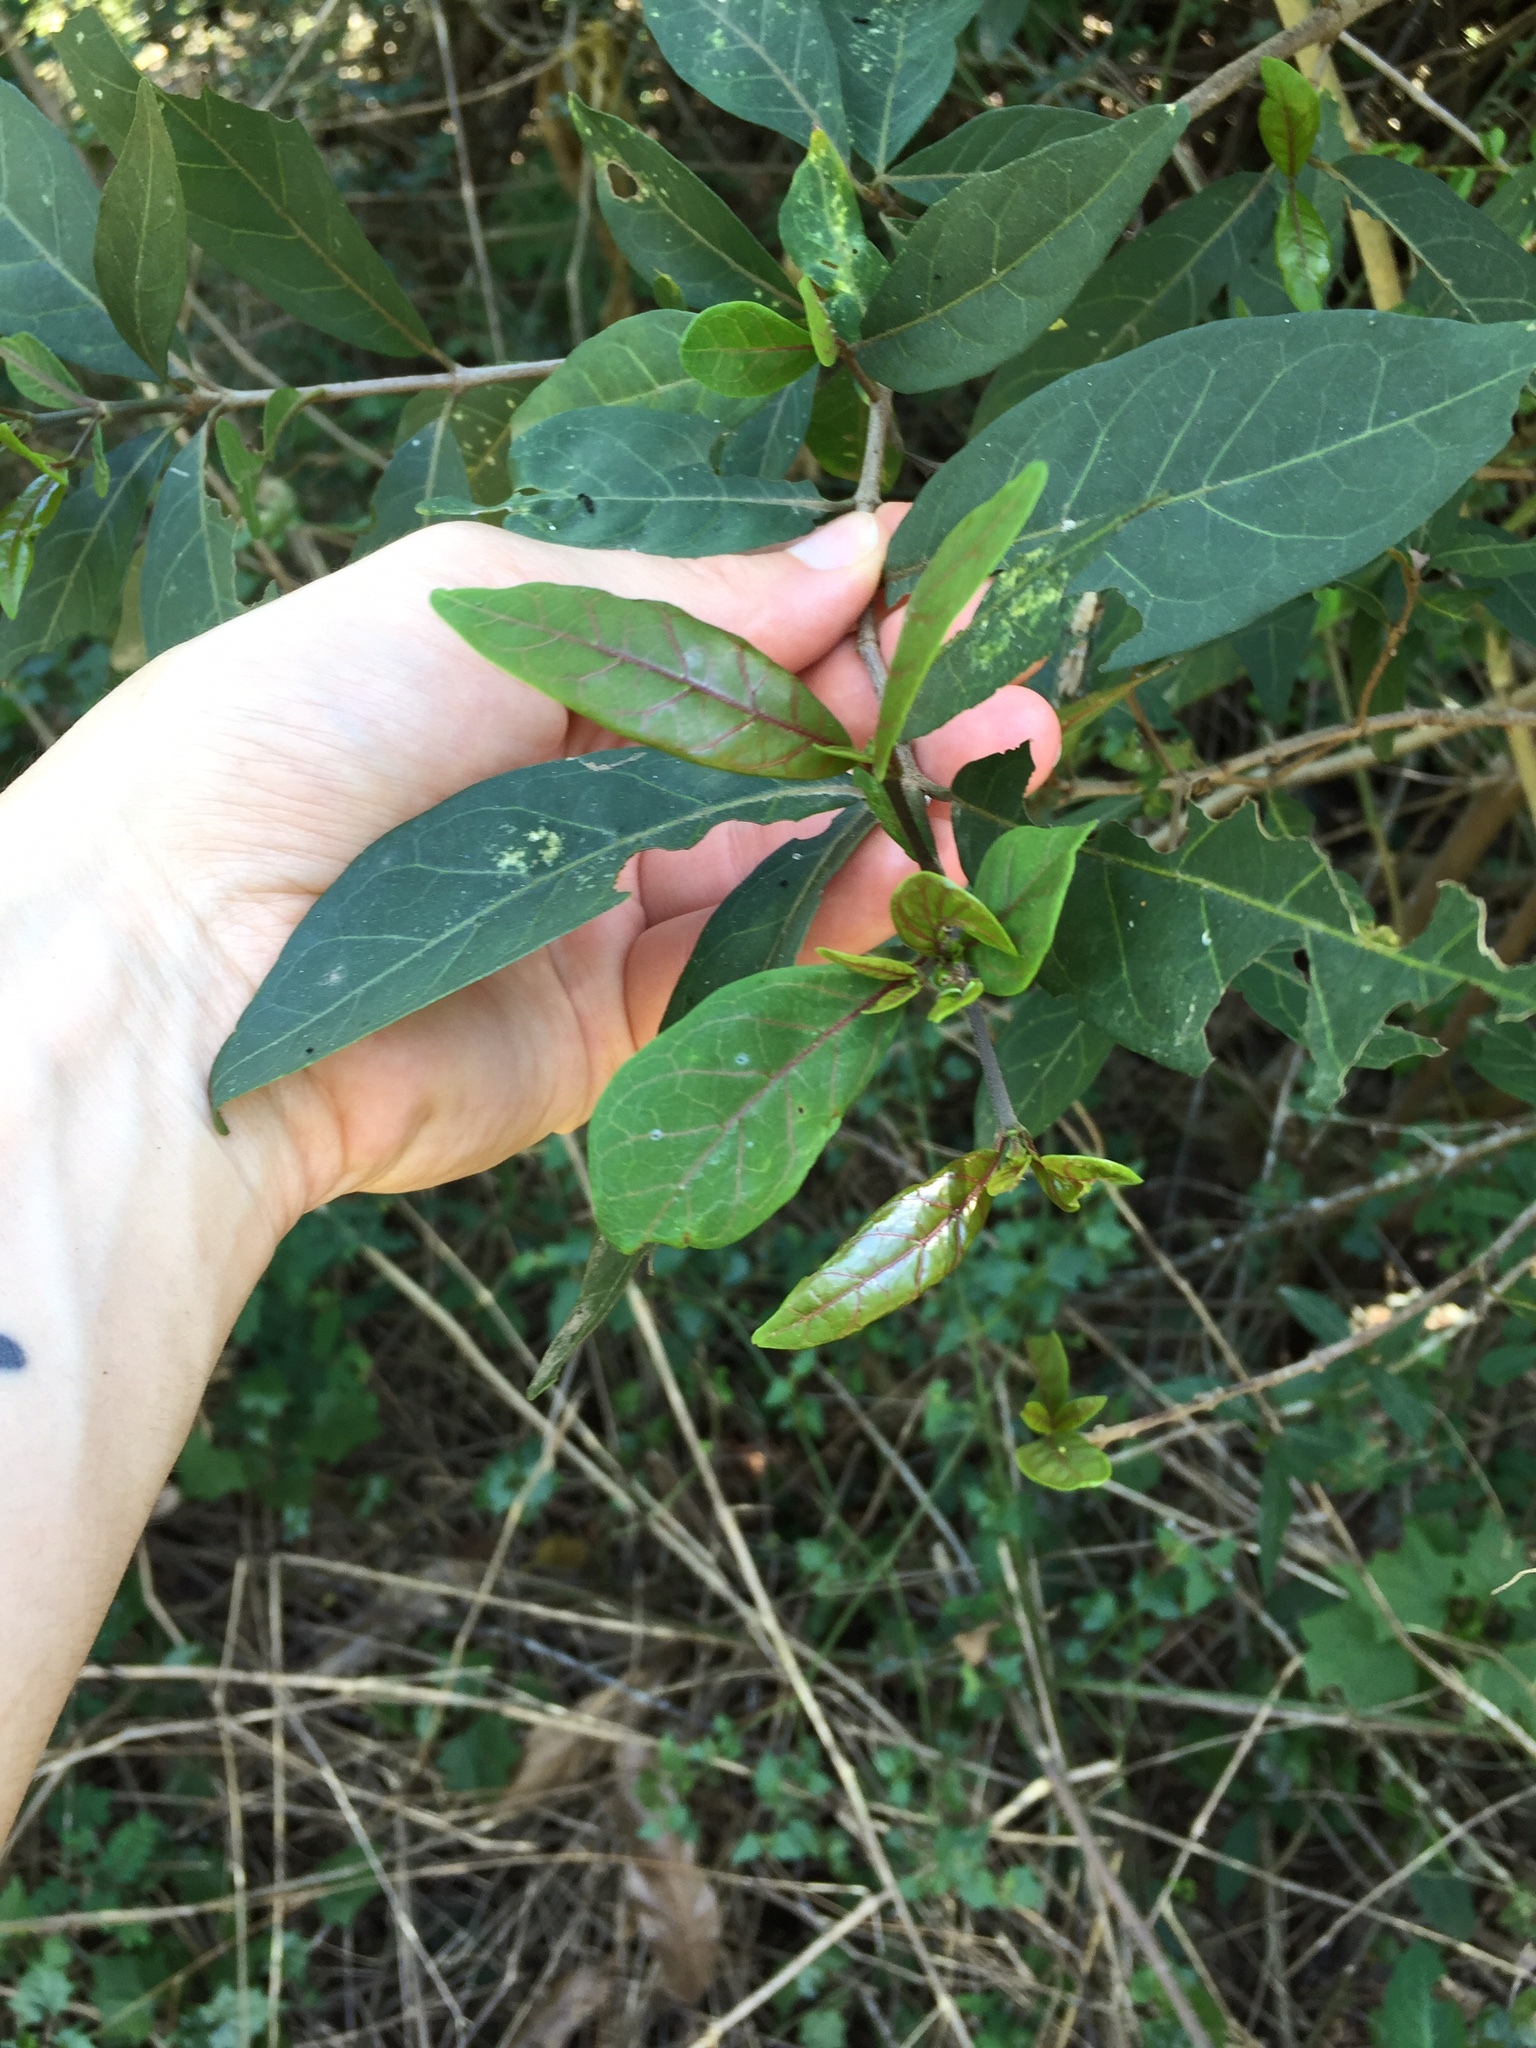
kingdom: Plantae
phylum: Tracheophyta
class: Magnoliopsida
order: Gentianales
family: Rubiaceae
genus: Rothmannia
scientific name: Rothmannia globosa
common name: September bells
